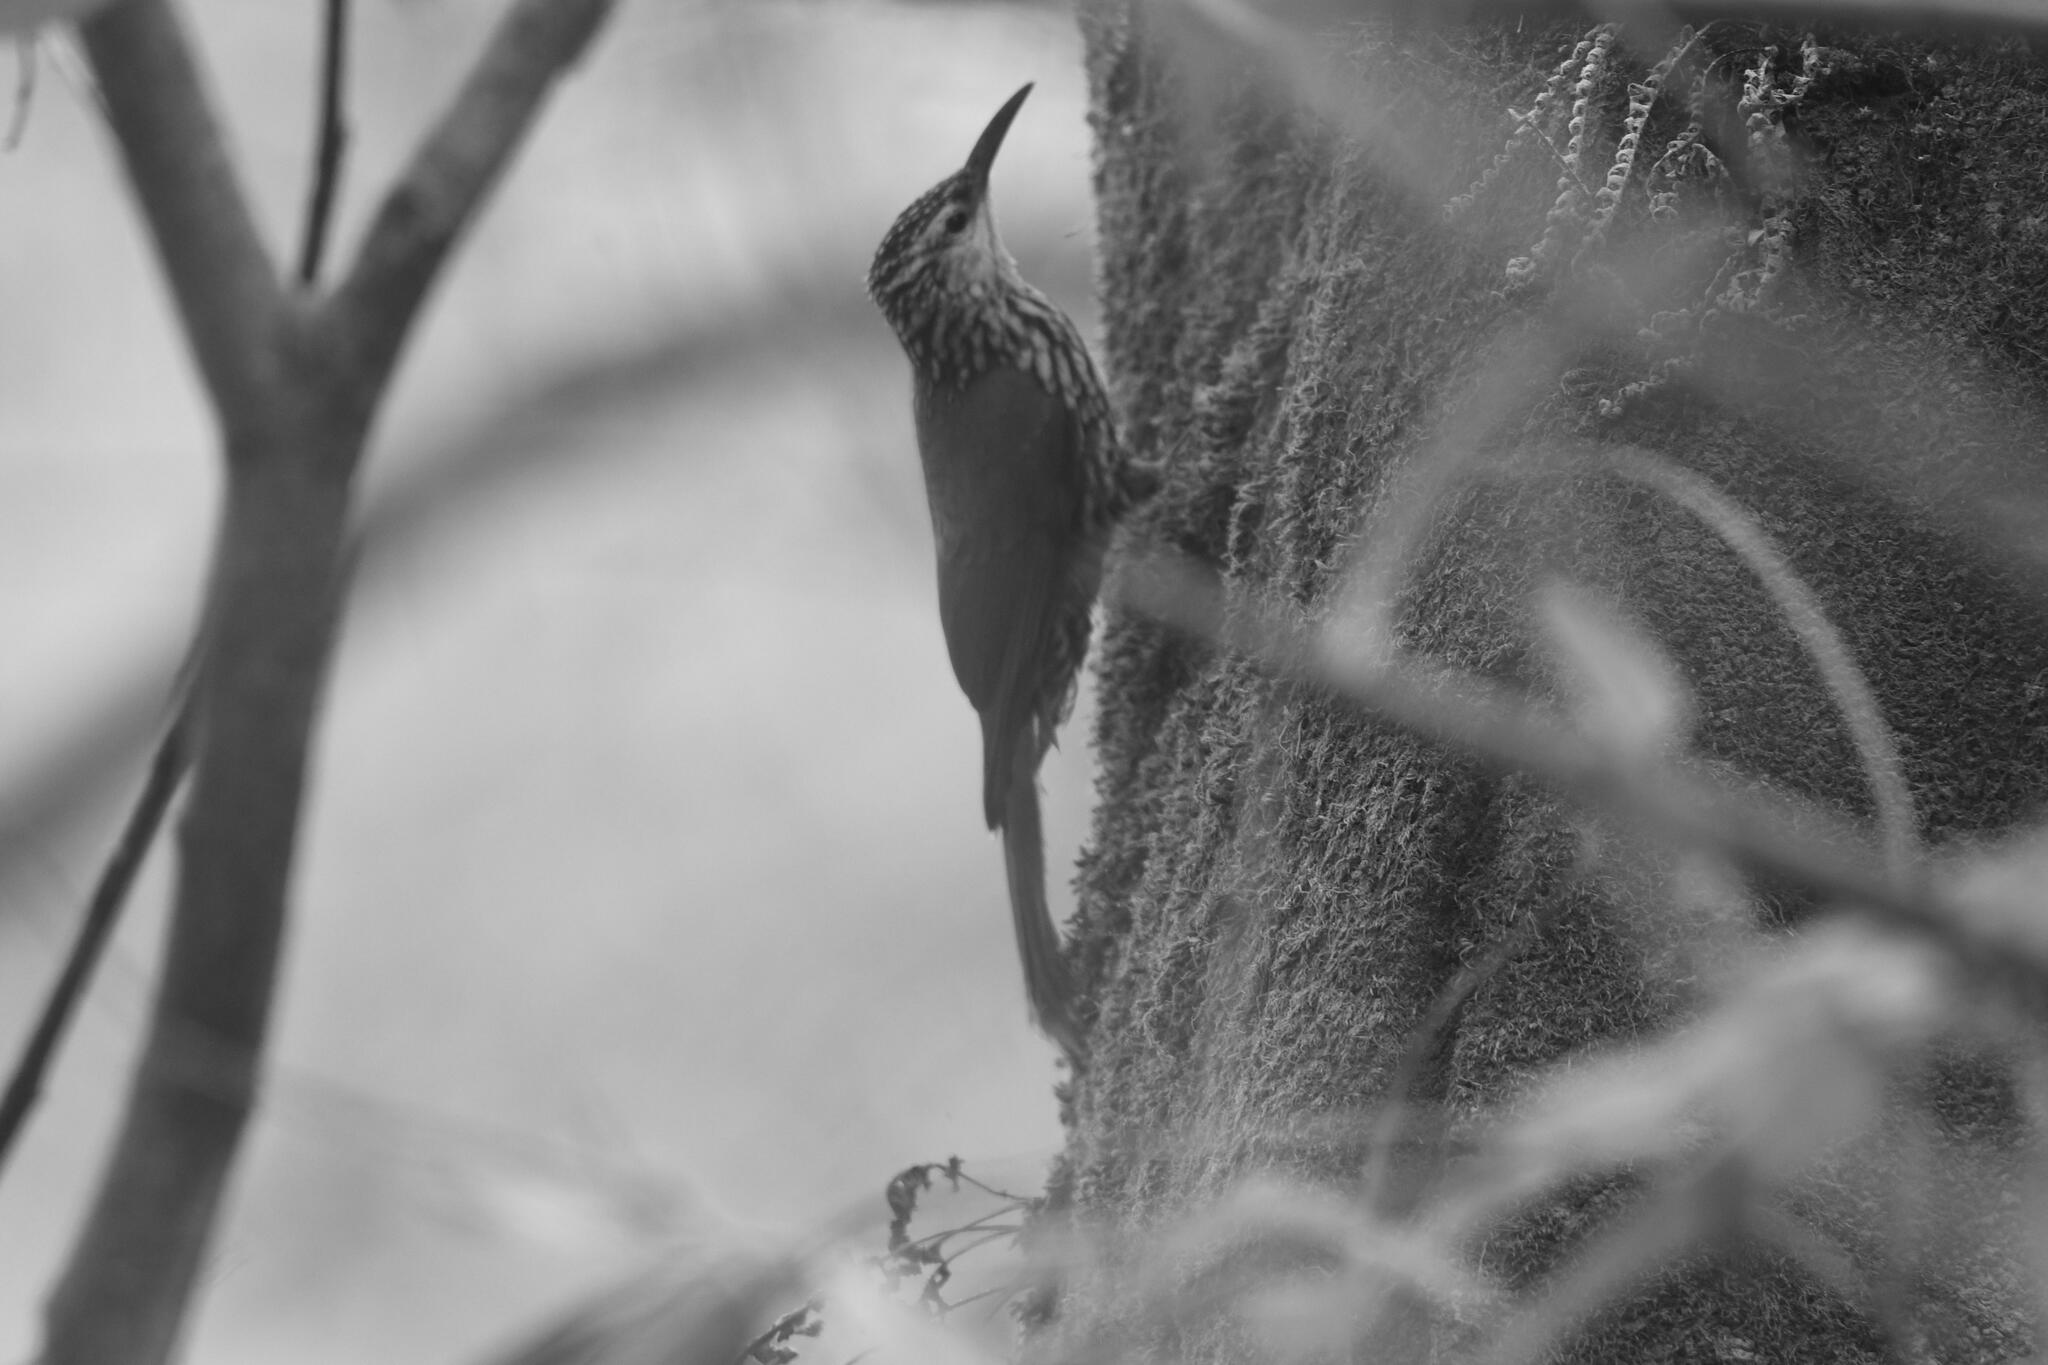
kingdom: Animalia
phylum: Chordata
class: Aves
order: Passeriformes
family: Furnariidae
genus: Lepidocolaptes
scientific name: Lepidocolaptes leucogaster
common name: White-striped woodcreeper
